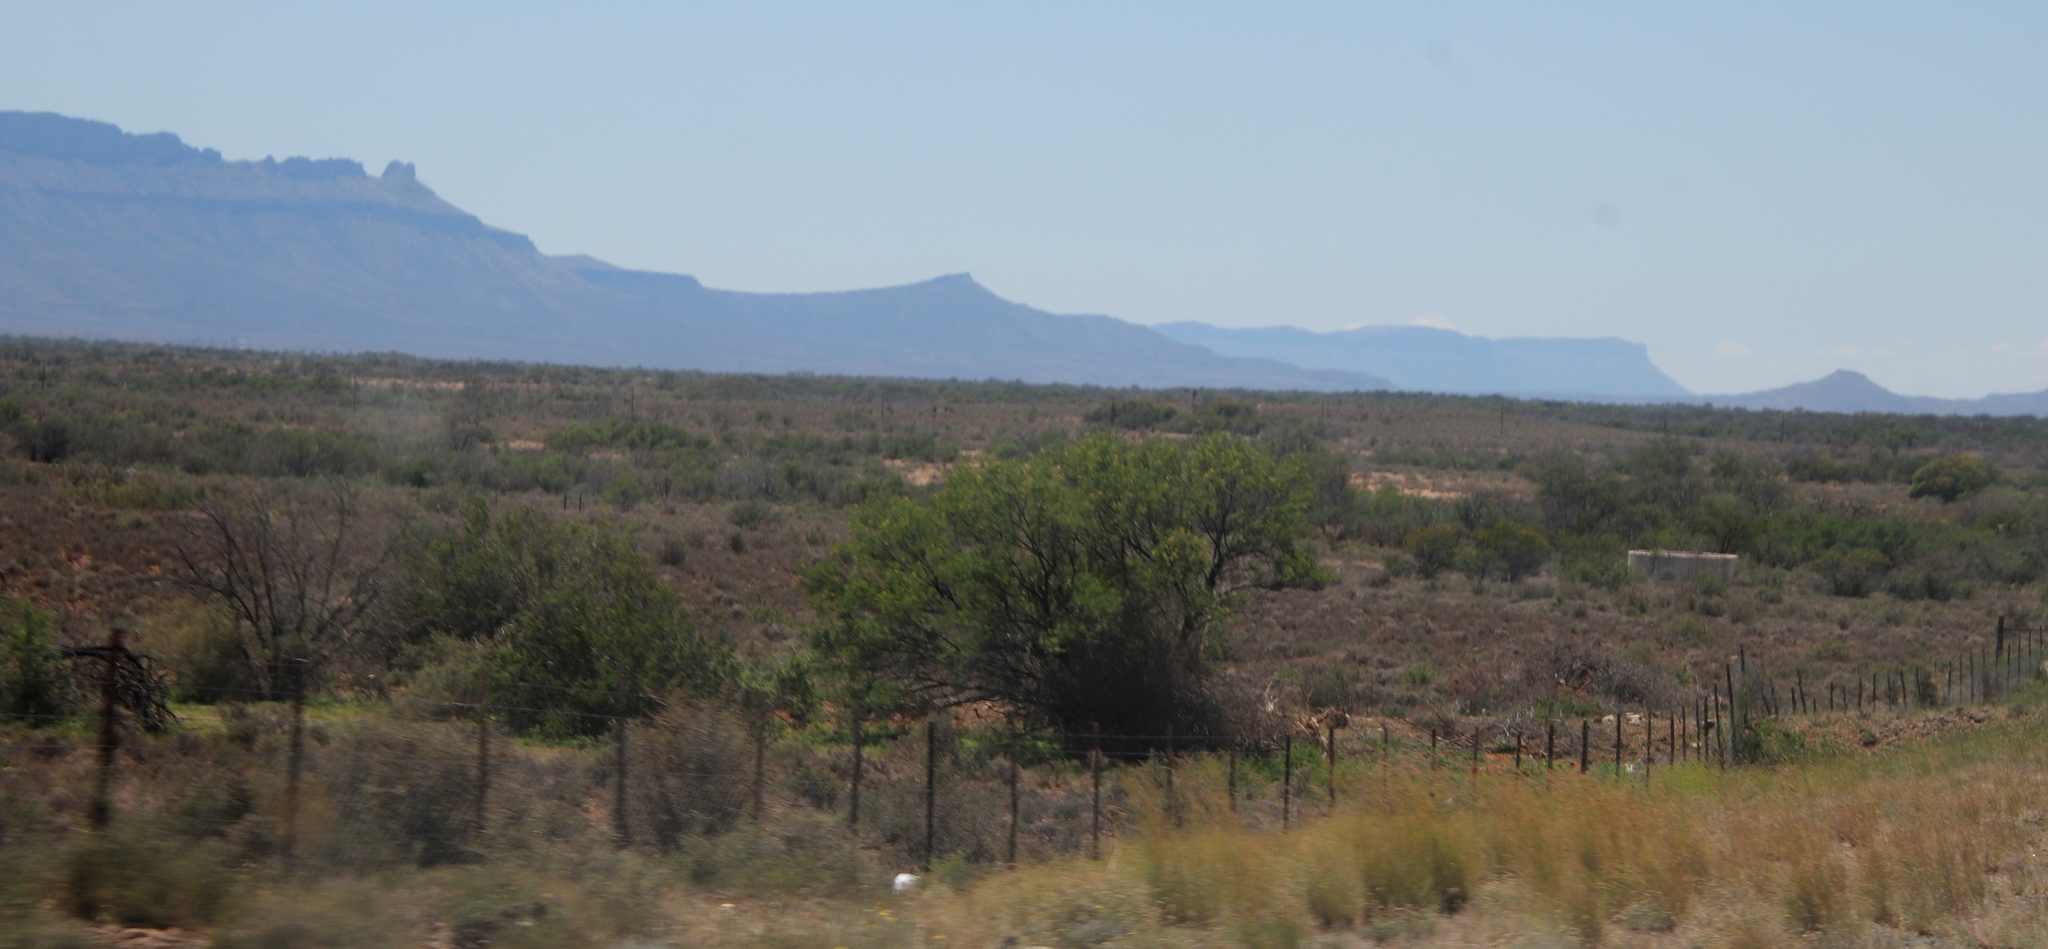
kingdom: Plantae
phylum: Tracheophyta
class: Magnoliopsida
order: Fabales
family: Fabaceae
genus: Vachellia
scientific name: Vachellia karroo
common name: Sweet thorn
